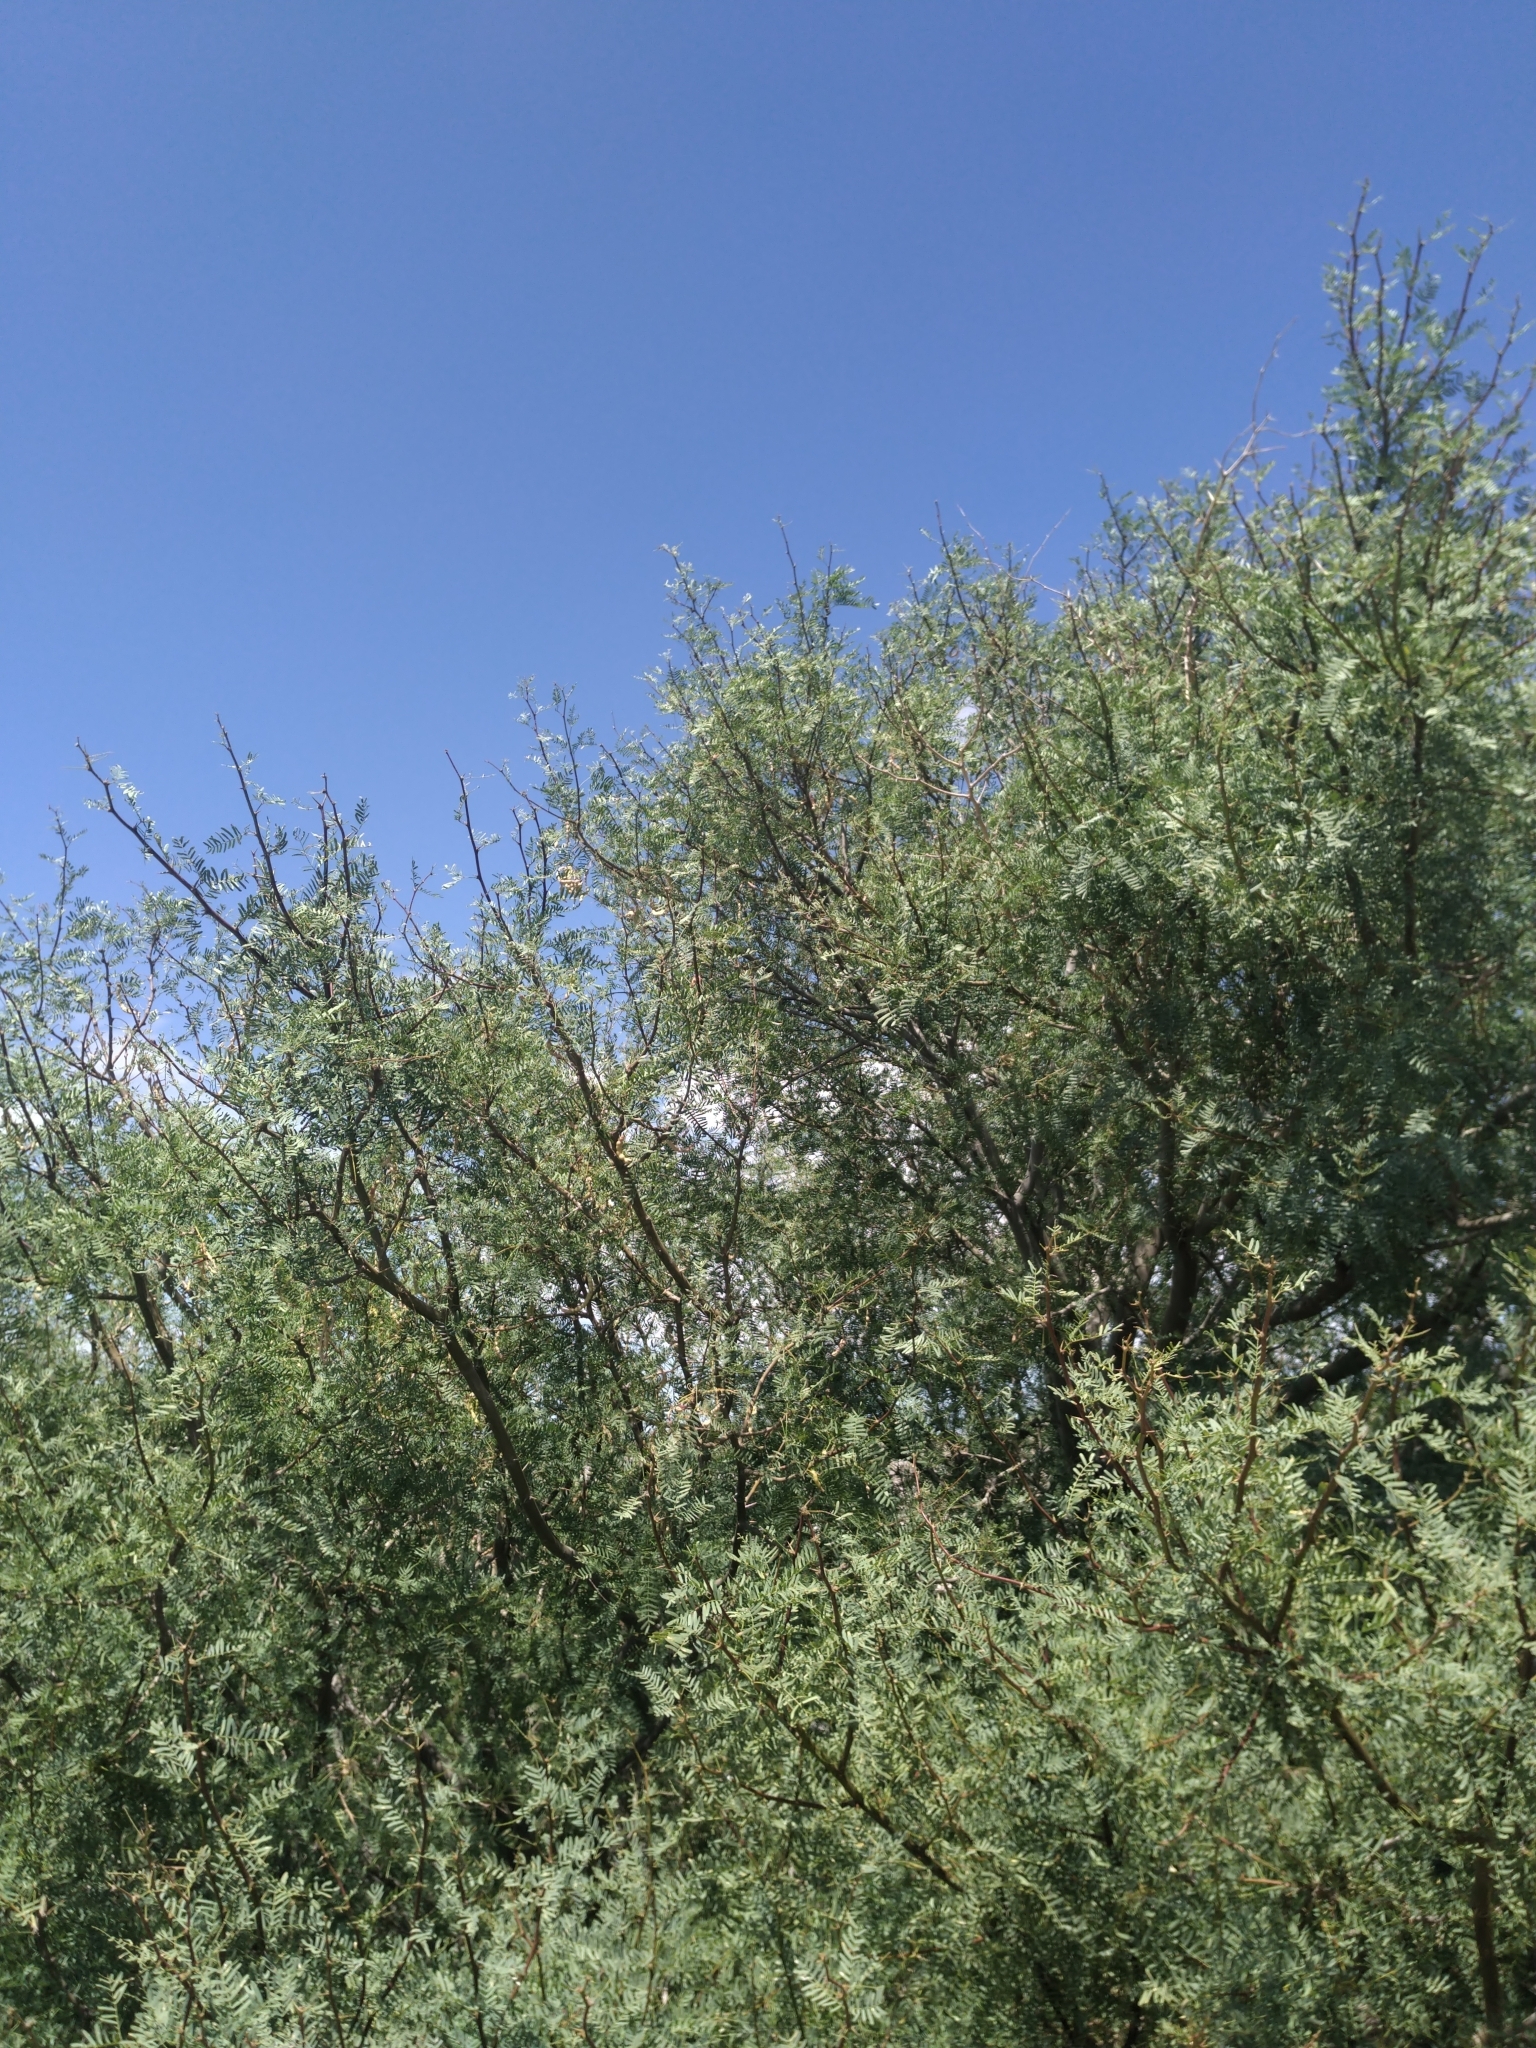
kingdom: Plantae
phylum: Tracheophyta
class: Magnoliopsida
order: Fabales
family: Fabaceae
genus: Prosopis
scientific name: Prosopis pubescens
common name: Screw-bean
